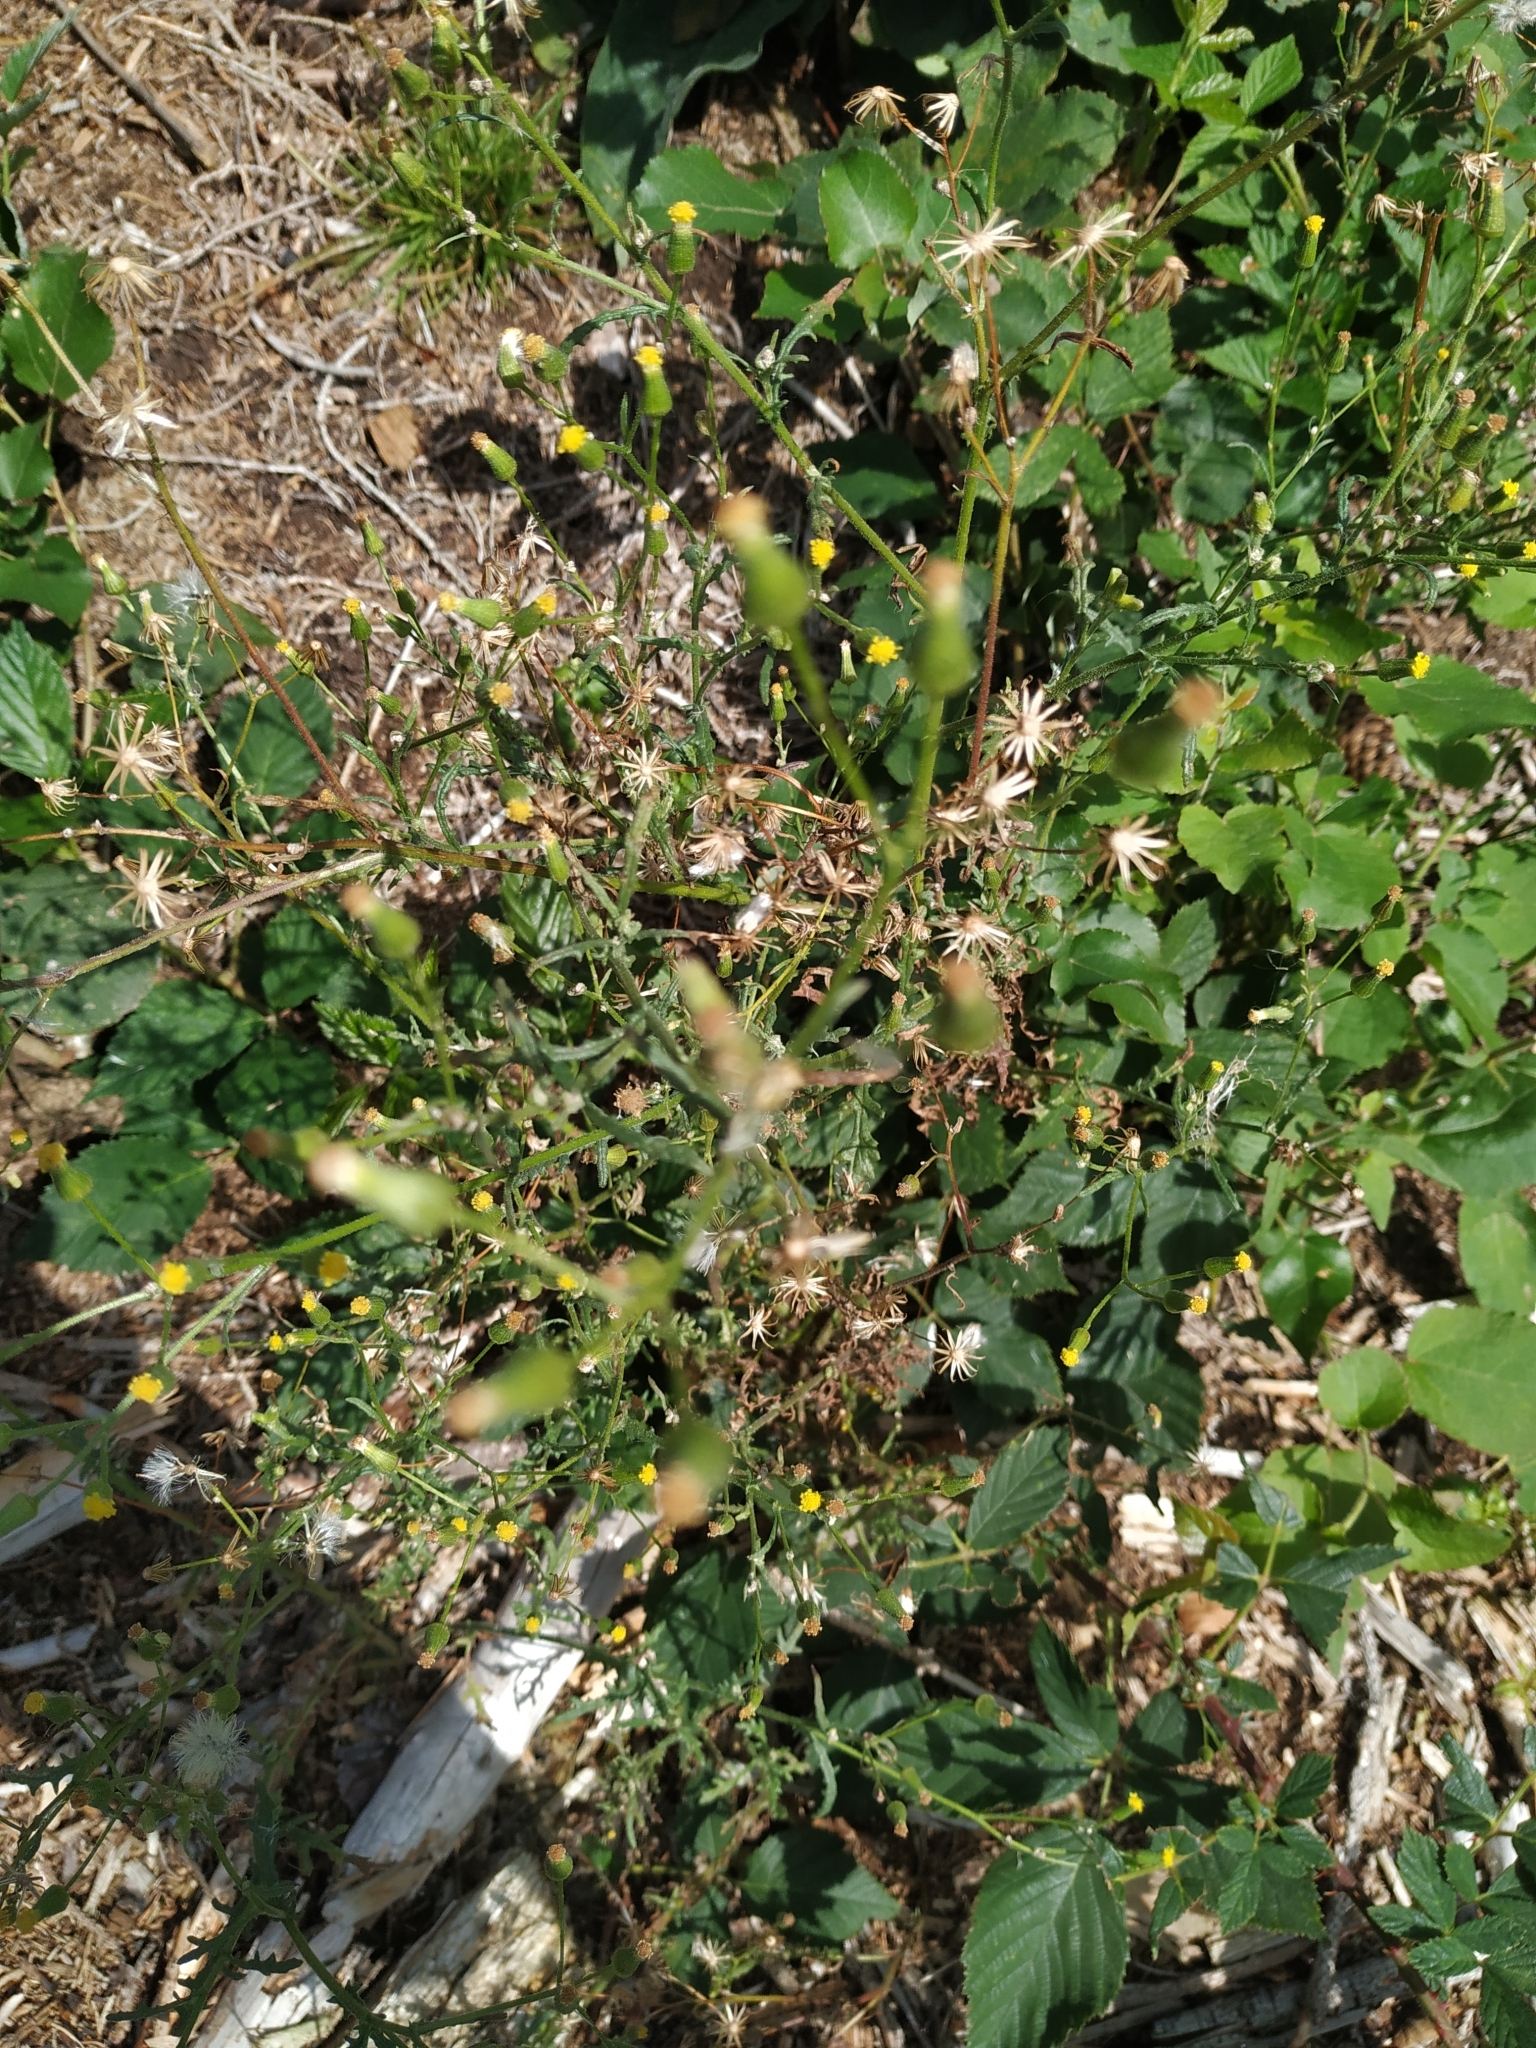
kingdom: Plantae
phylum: Tracheophyta
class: Magnoliopsida
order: Asterales
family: Asteraceae
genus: Senecio
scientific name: Senecio sylvaticus
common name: Woodland ragwort
